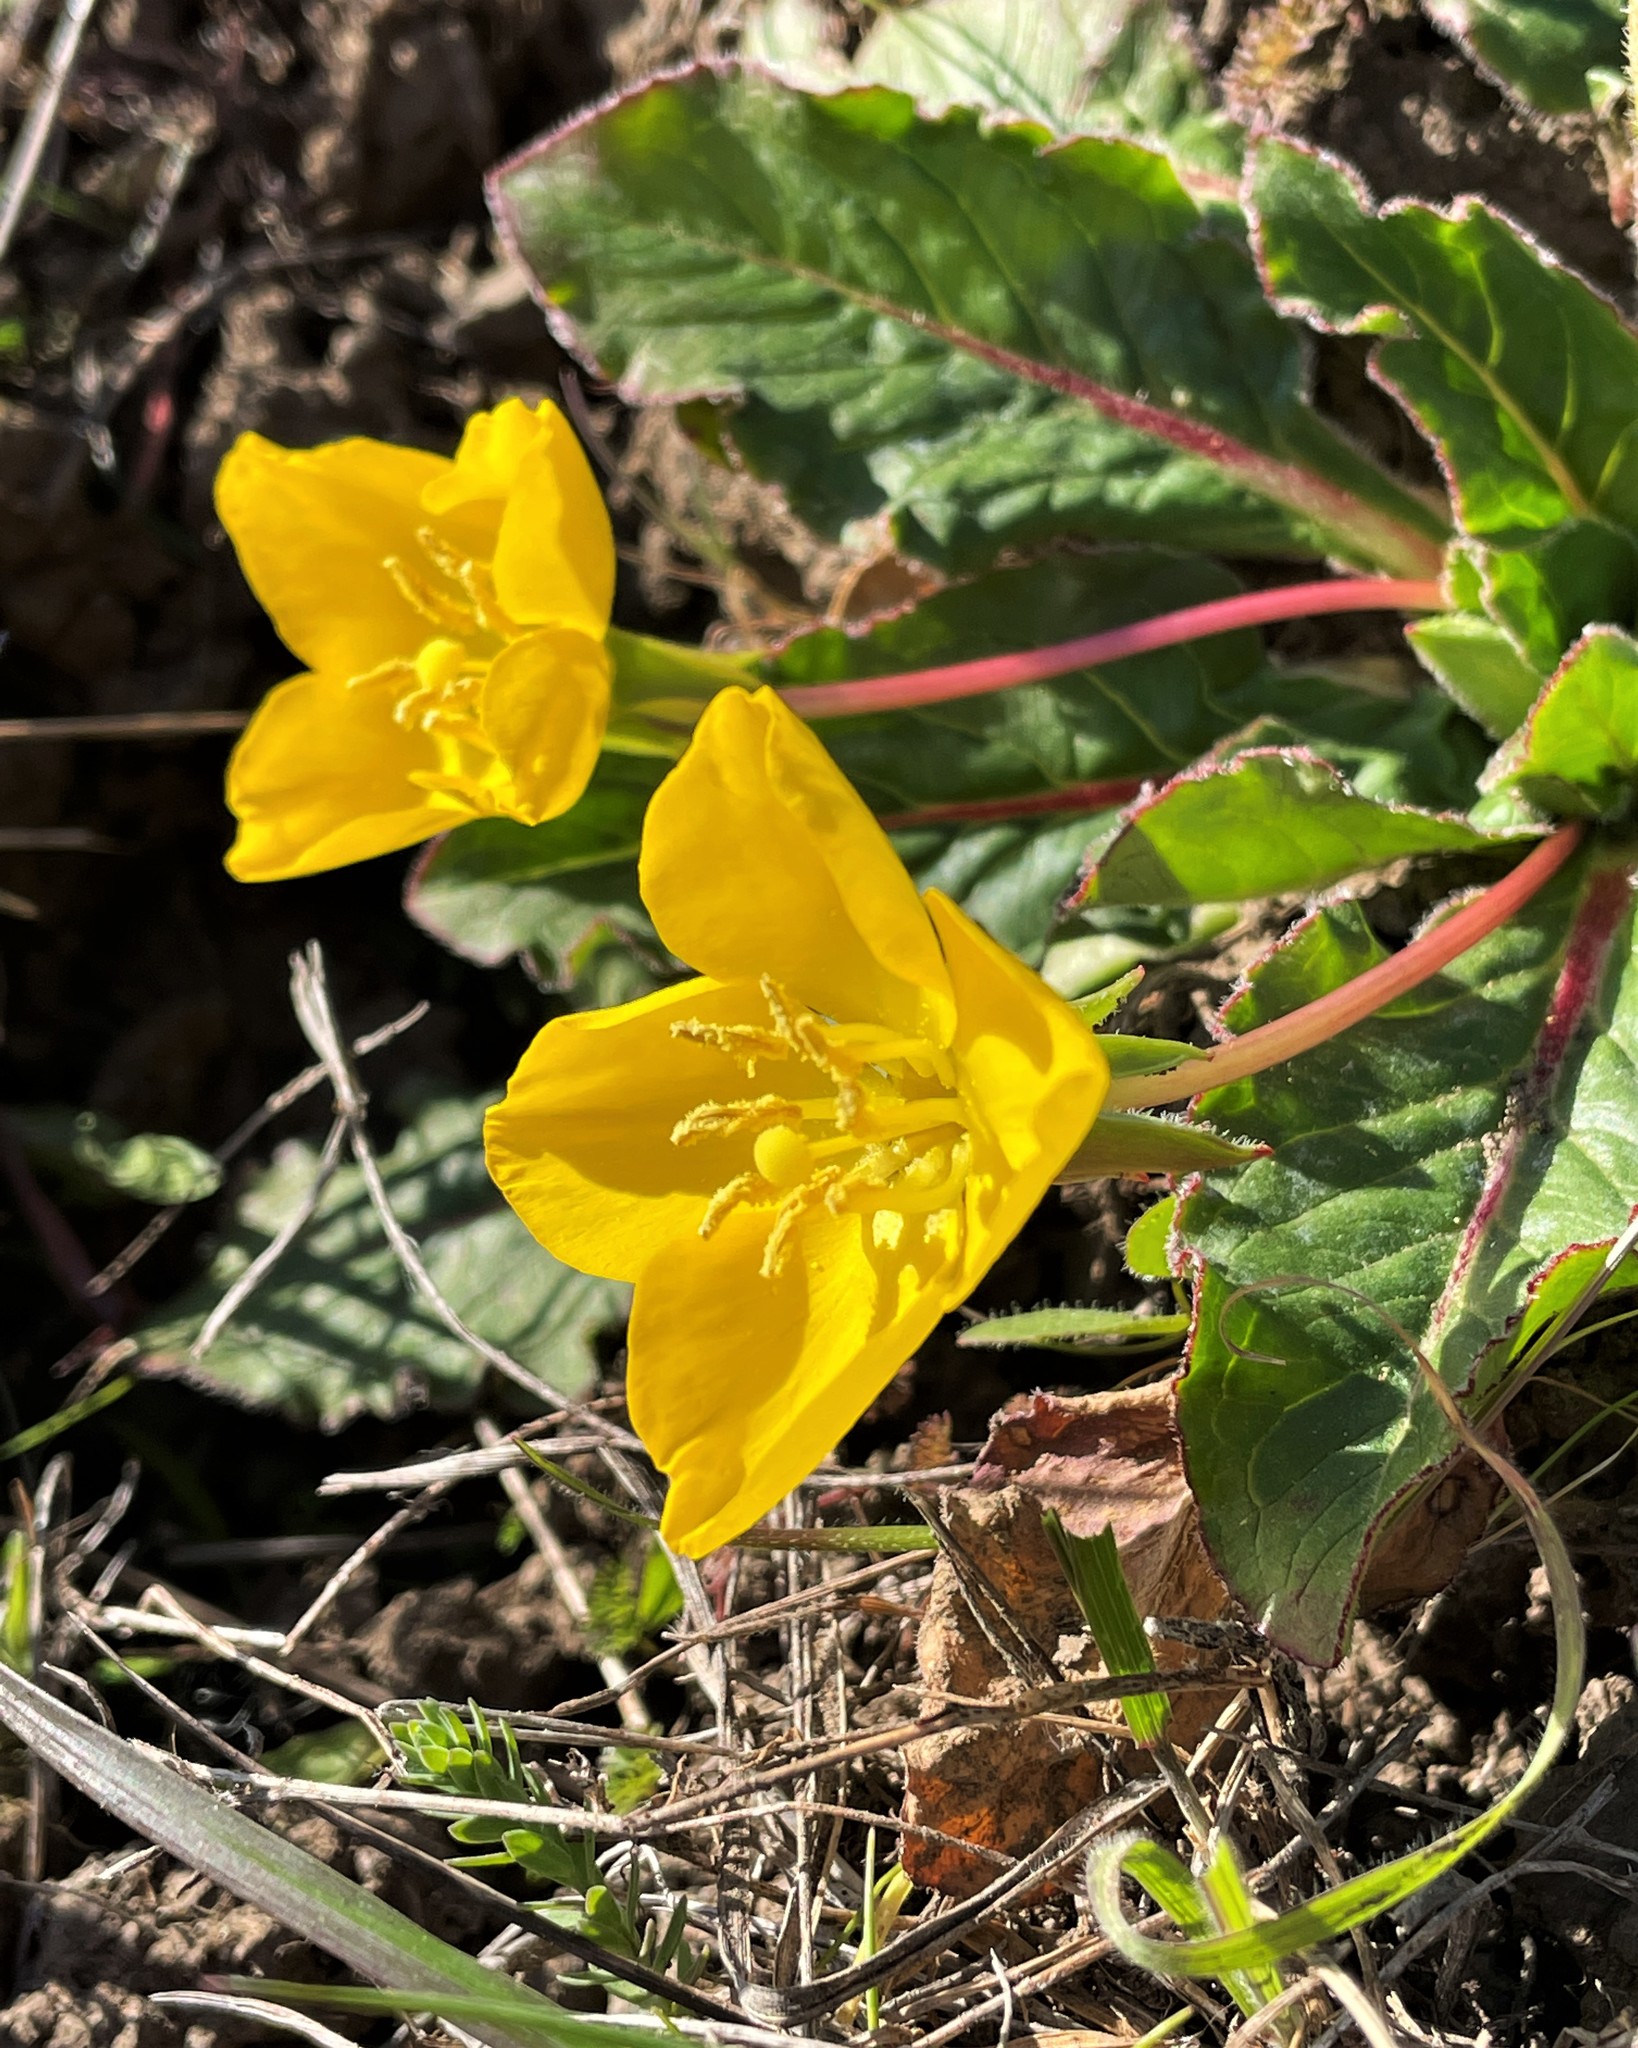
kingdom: Plantae
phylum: Tracheophyta
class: Magnoliopsida
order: Myrtales
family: Onagraceae
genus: Taraxia
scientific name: Taraxia ovata
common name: Goldeneggs
